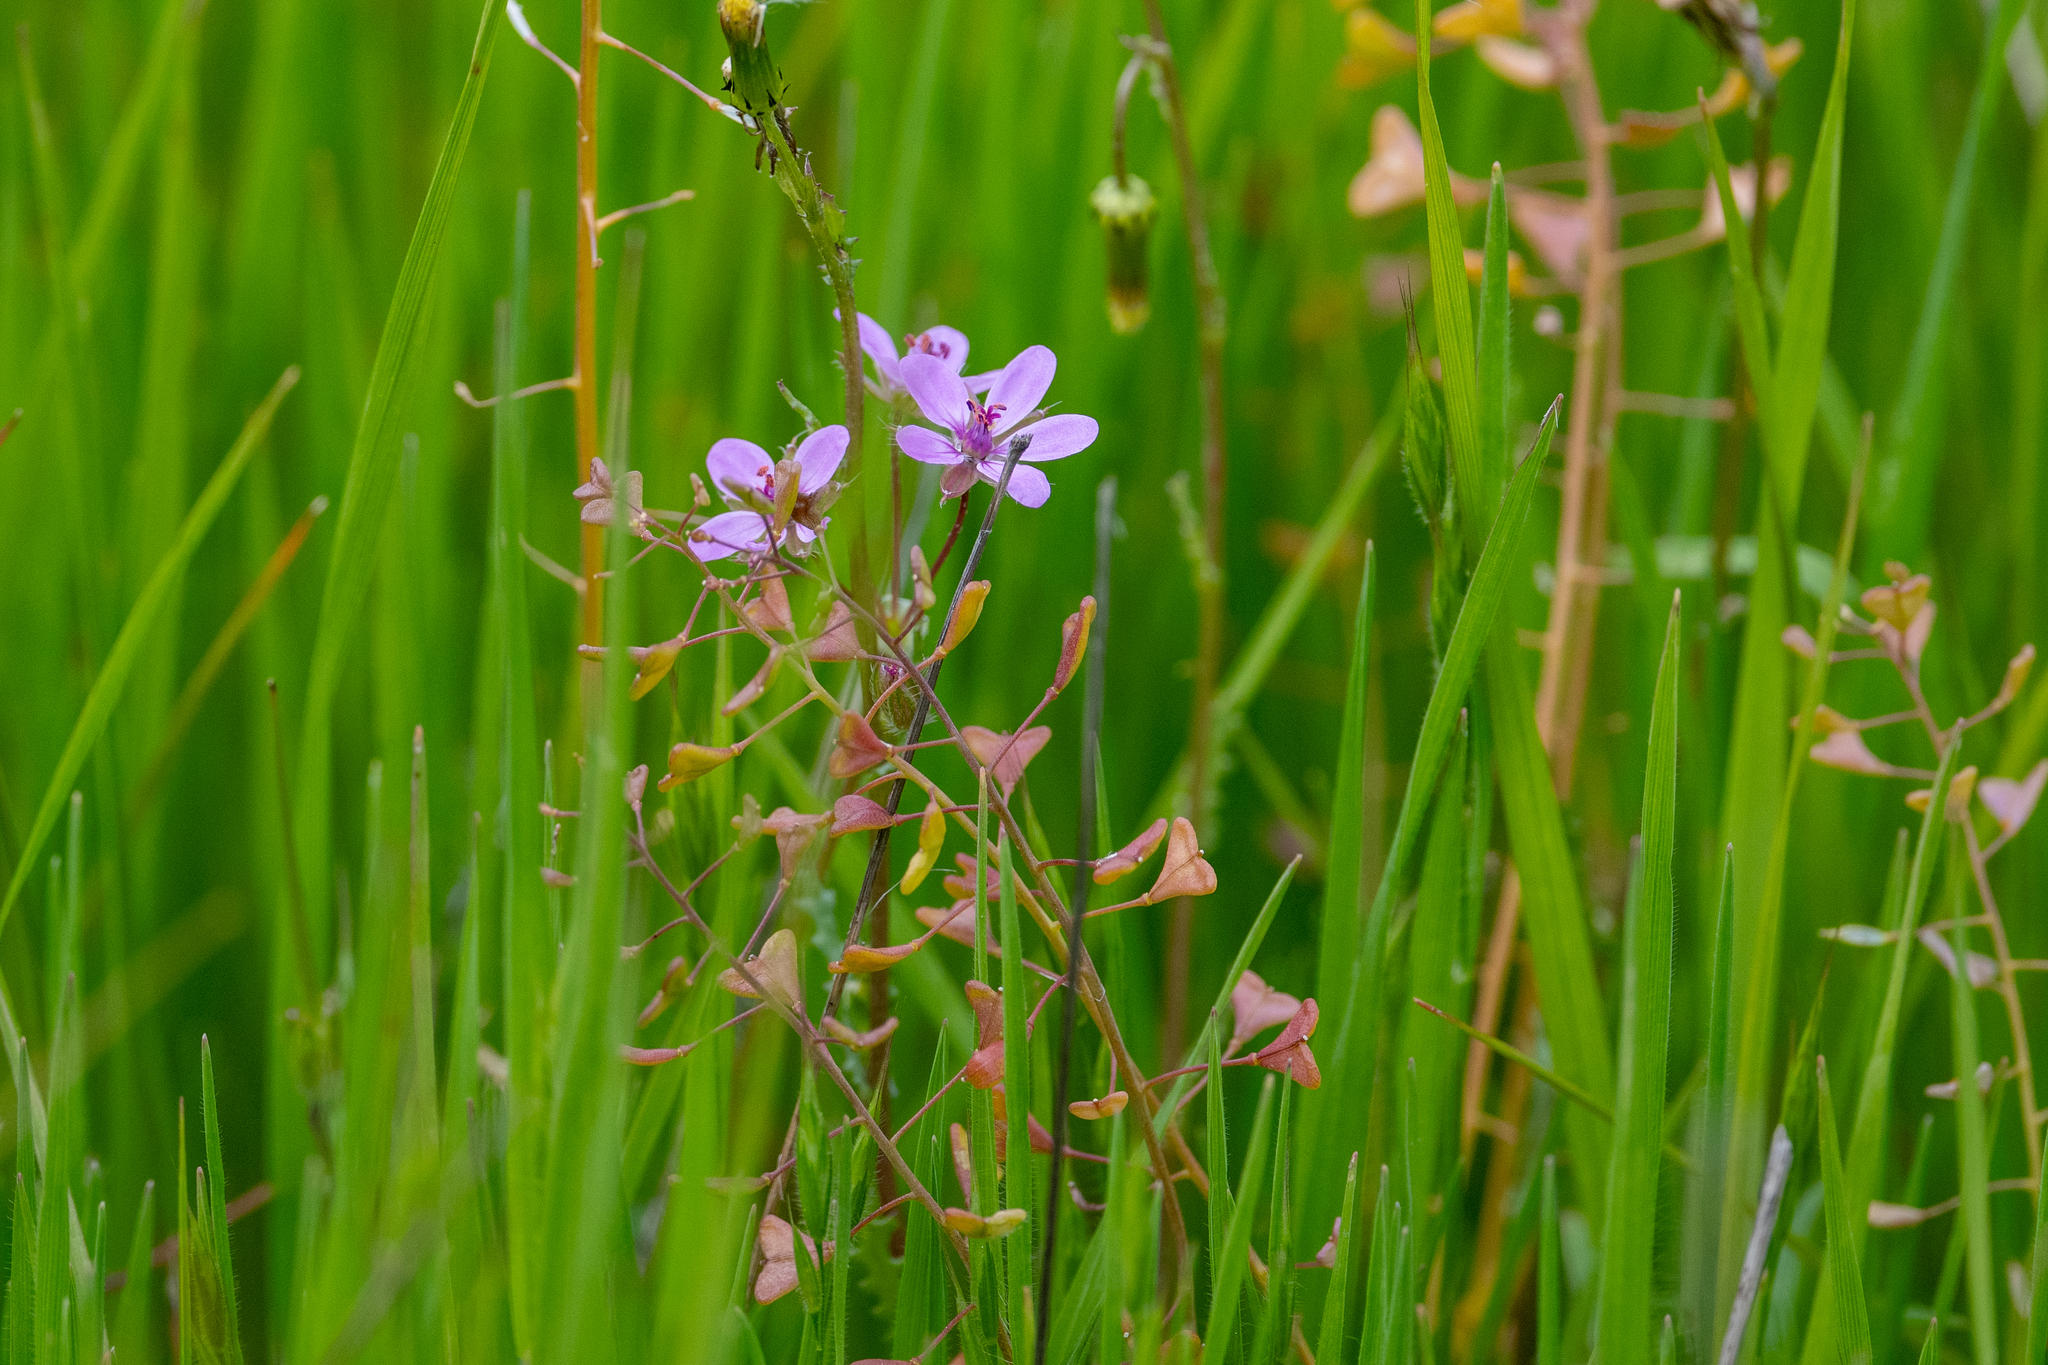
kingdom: Plantae
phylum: Tracheophyta
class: Magnoliopsida
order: Geraniales
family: Geraniaceae
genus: Erodium
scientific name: Erodium cicutarium
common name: Common stork's-bill
